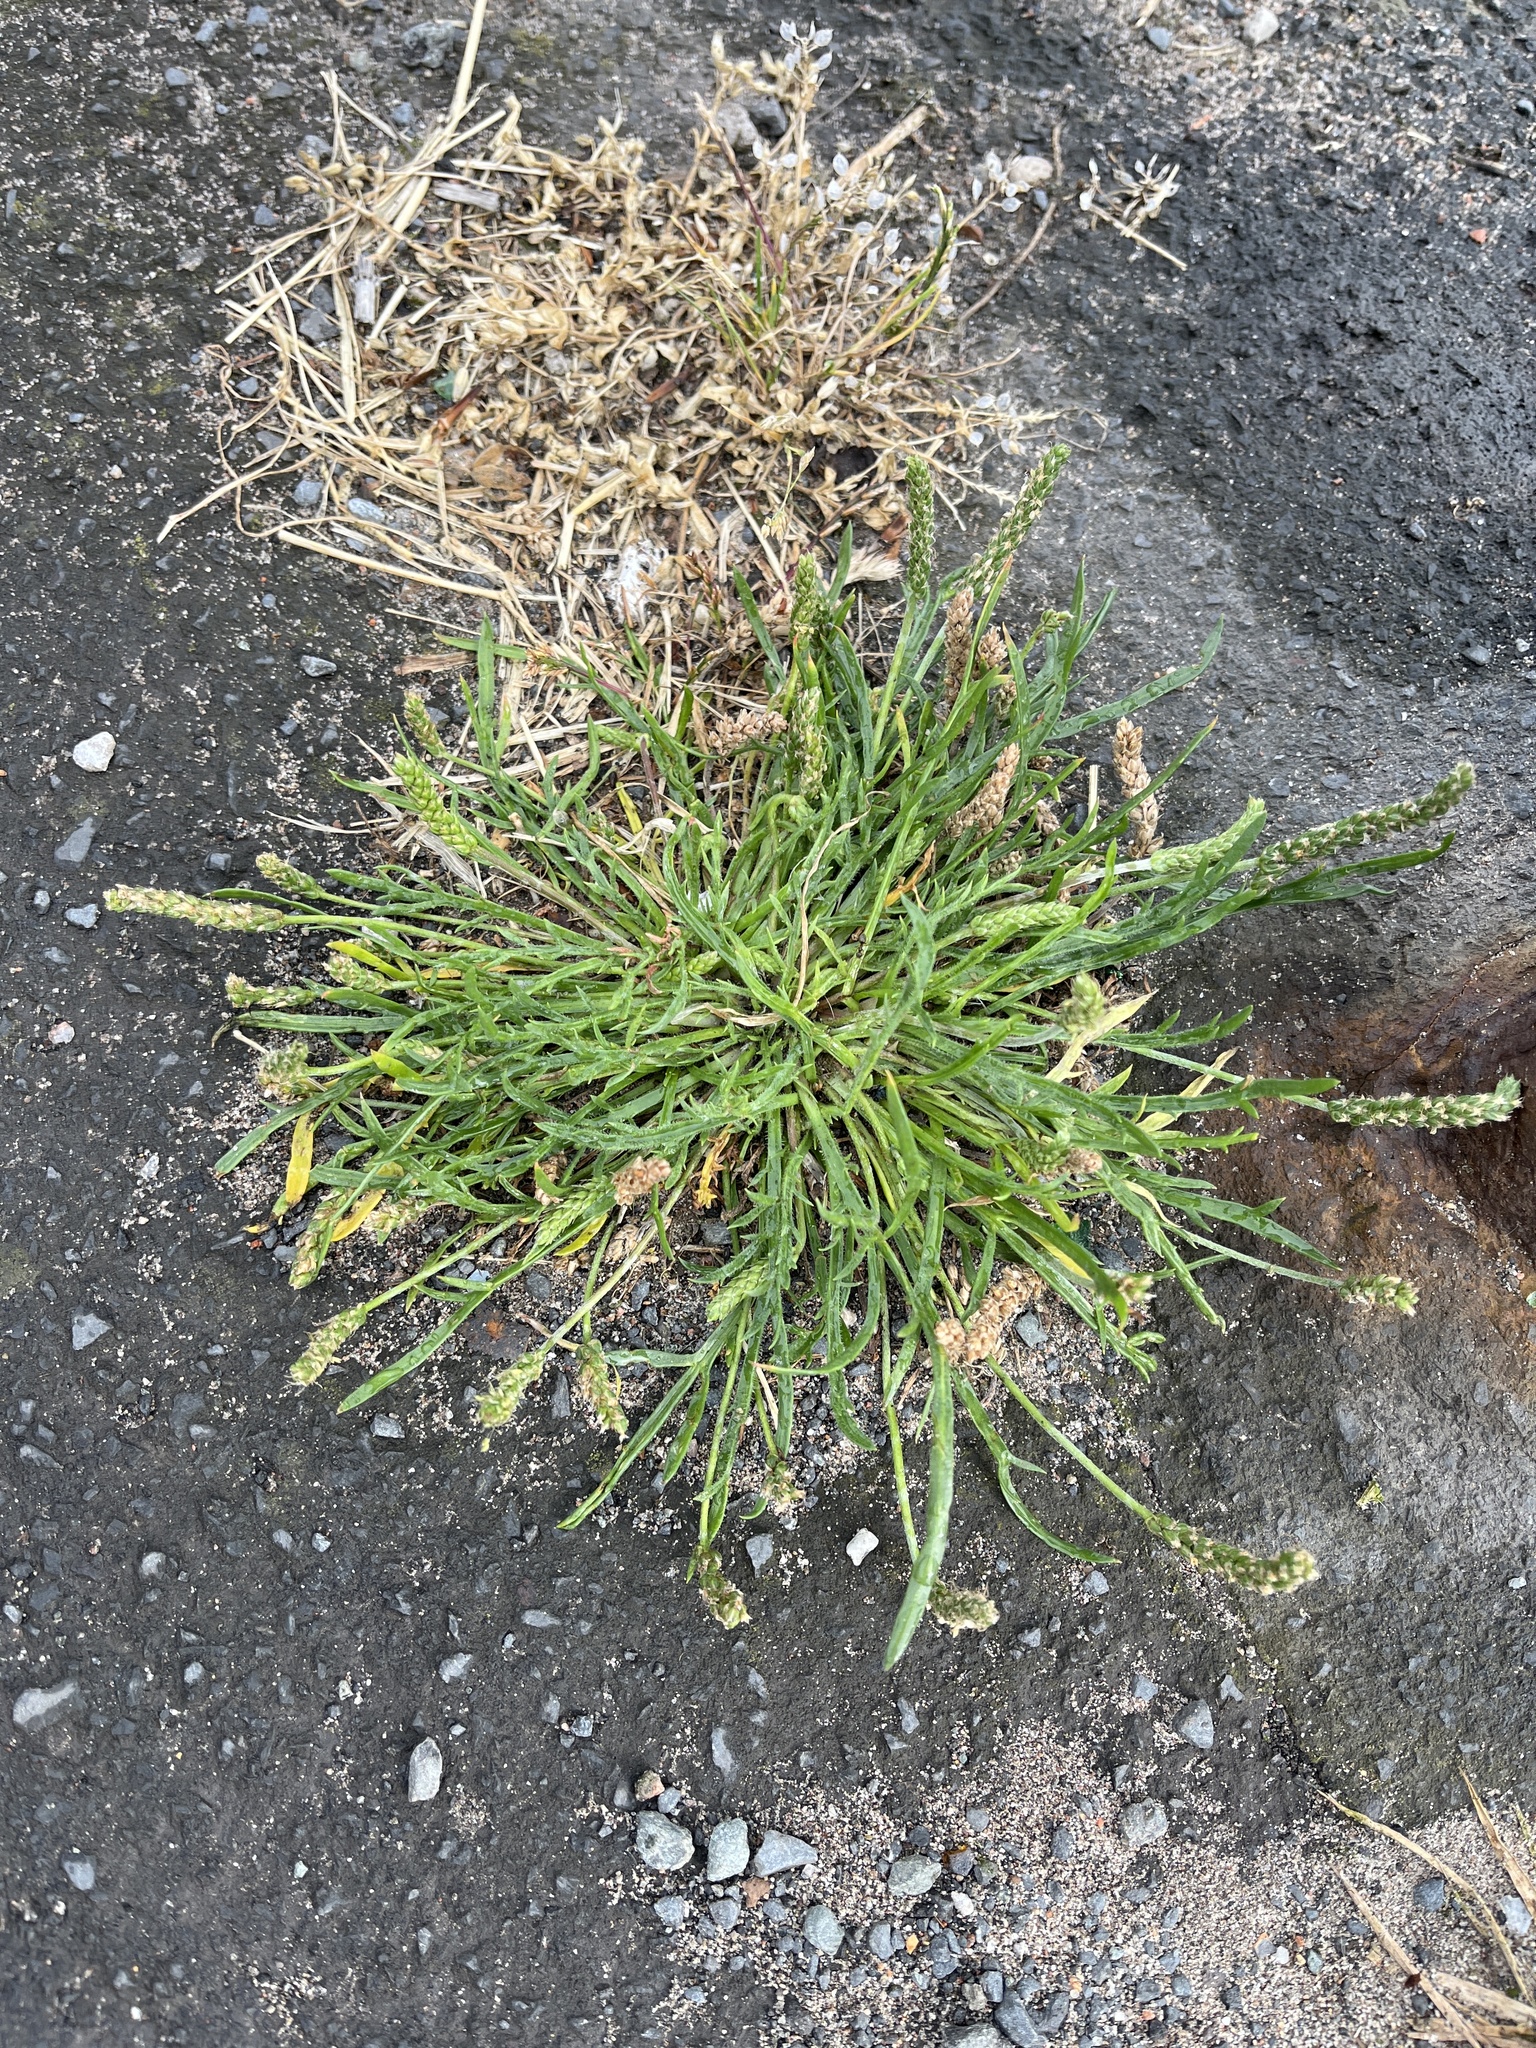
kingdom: Plantae
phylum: Tracheophyta
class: Magnoliopsida
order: Lamiales
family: Plantaginaceae
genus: Plantago
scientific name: Plantago coronopus
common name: Buck's-horn plantain
